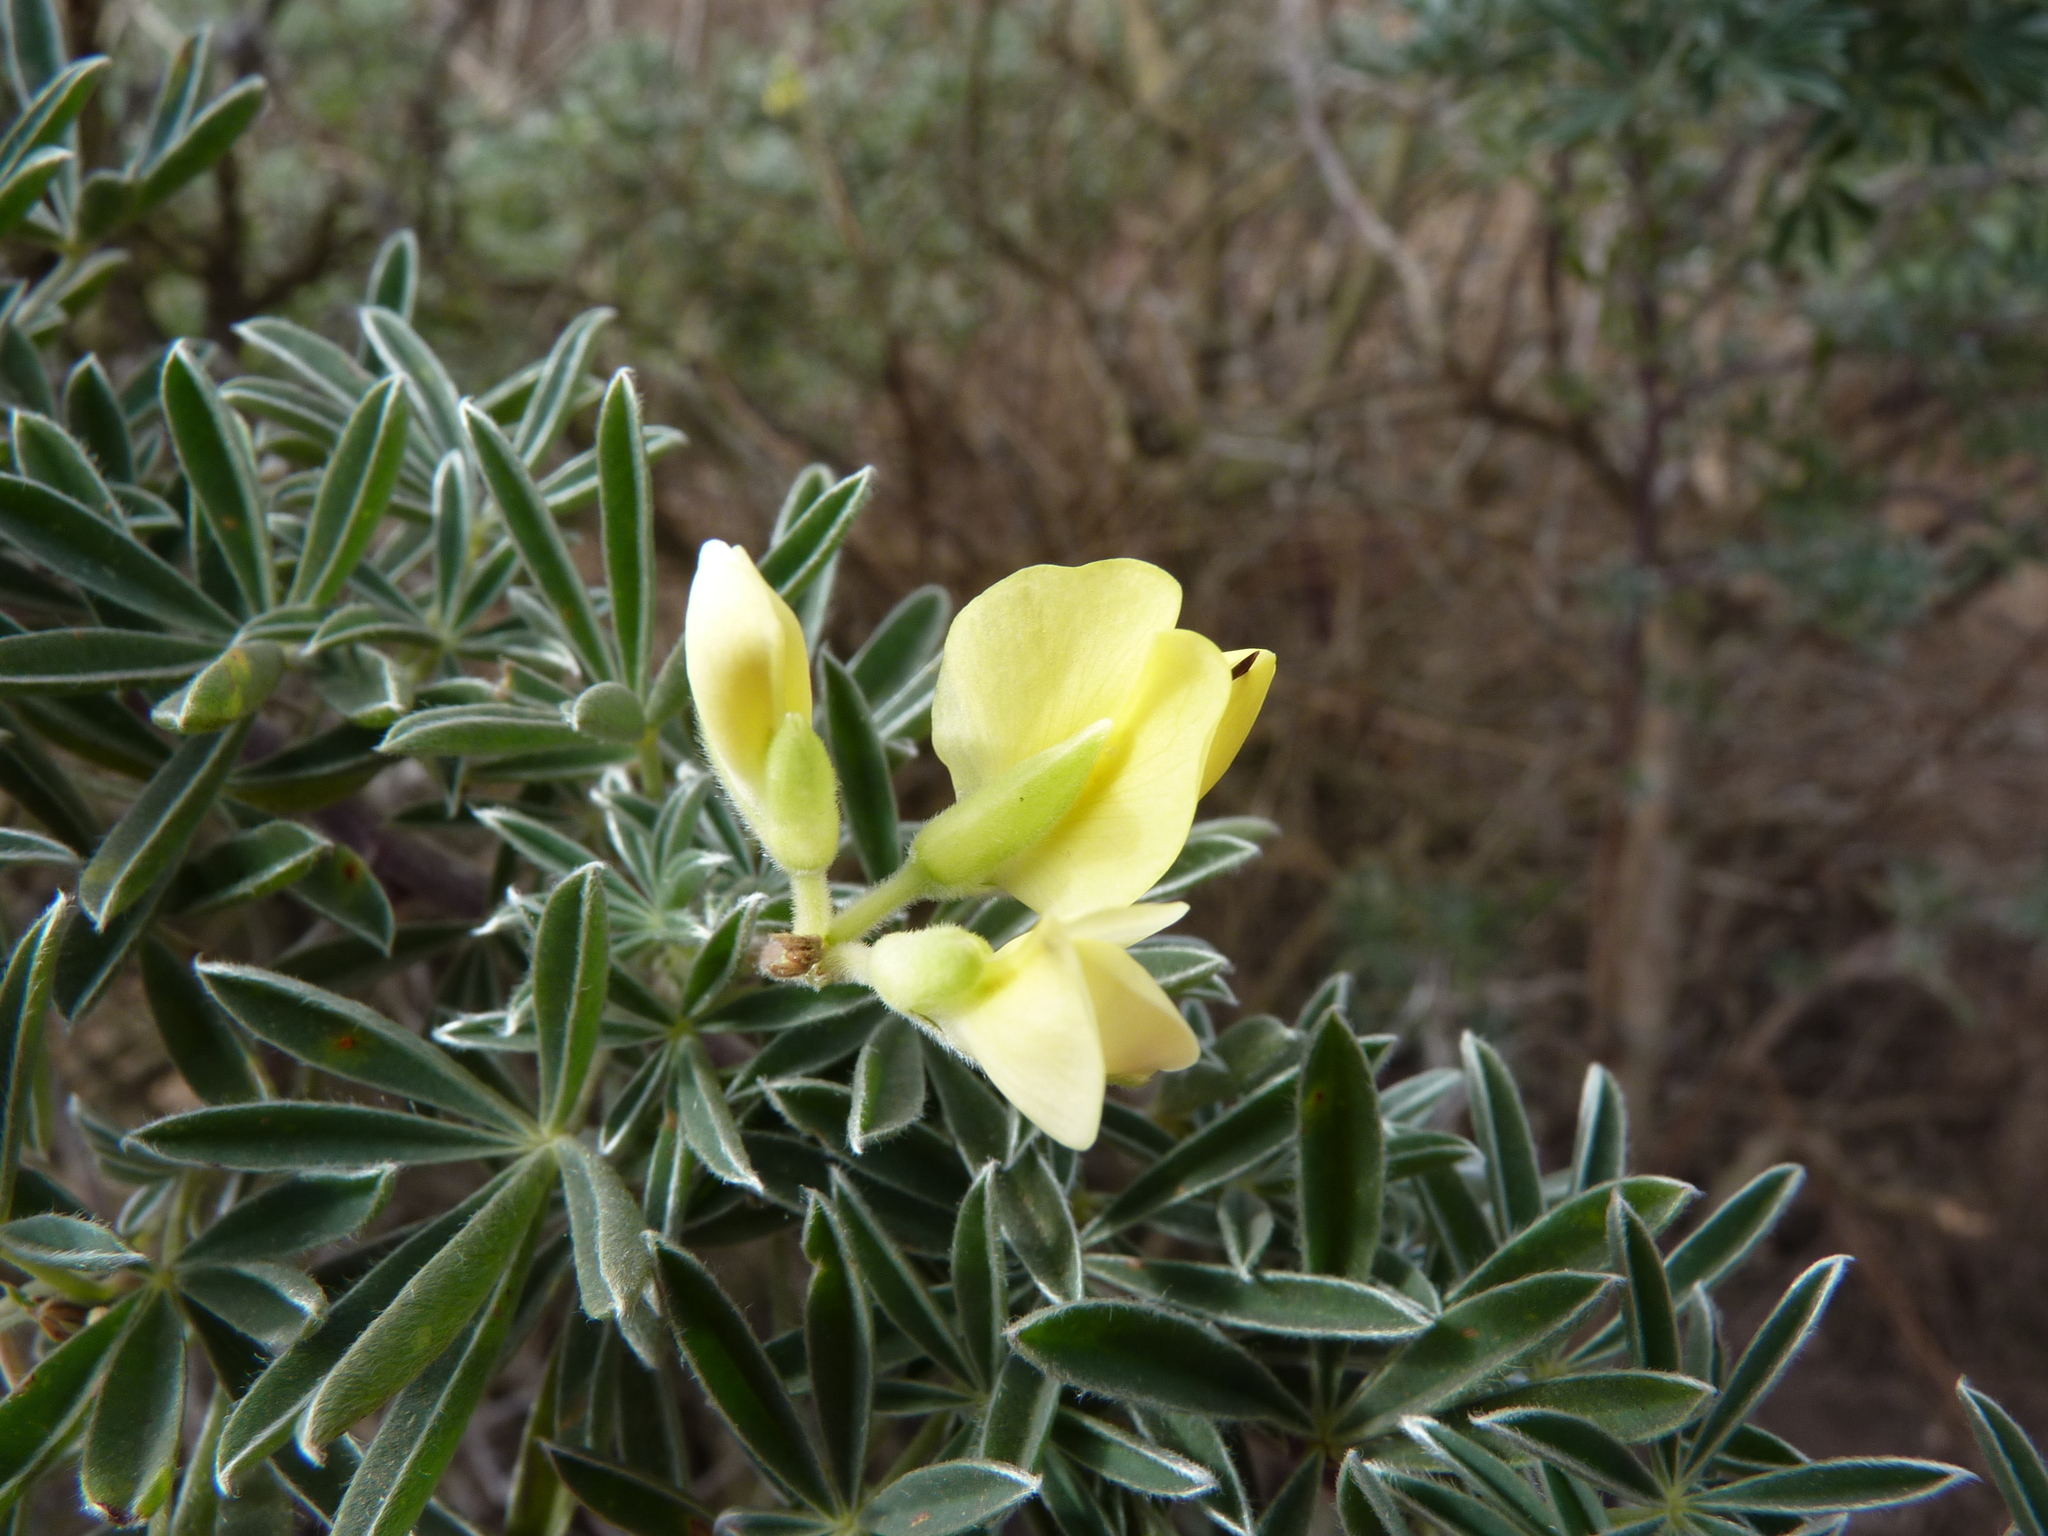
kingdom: Plantae
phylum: Tracheophyta
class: Magnoliopsida
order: Fabales
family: Fabaceae
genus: Lupinus
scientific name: Lupinus arboreus
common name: Yellow bush lupine
